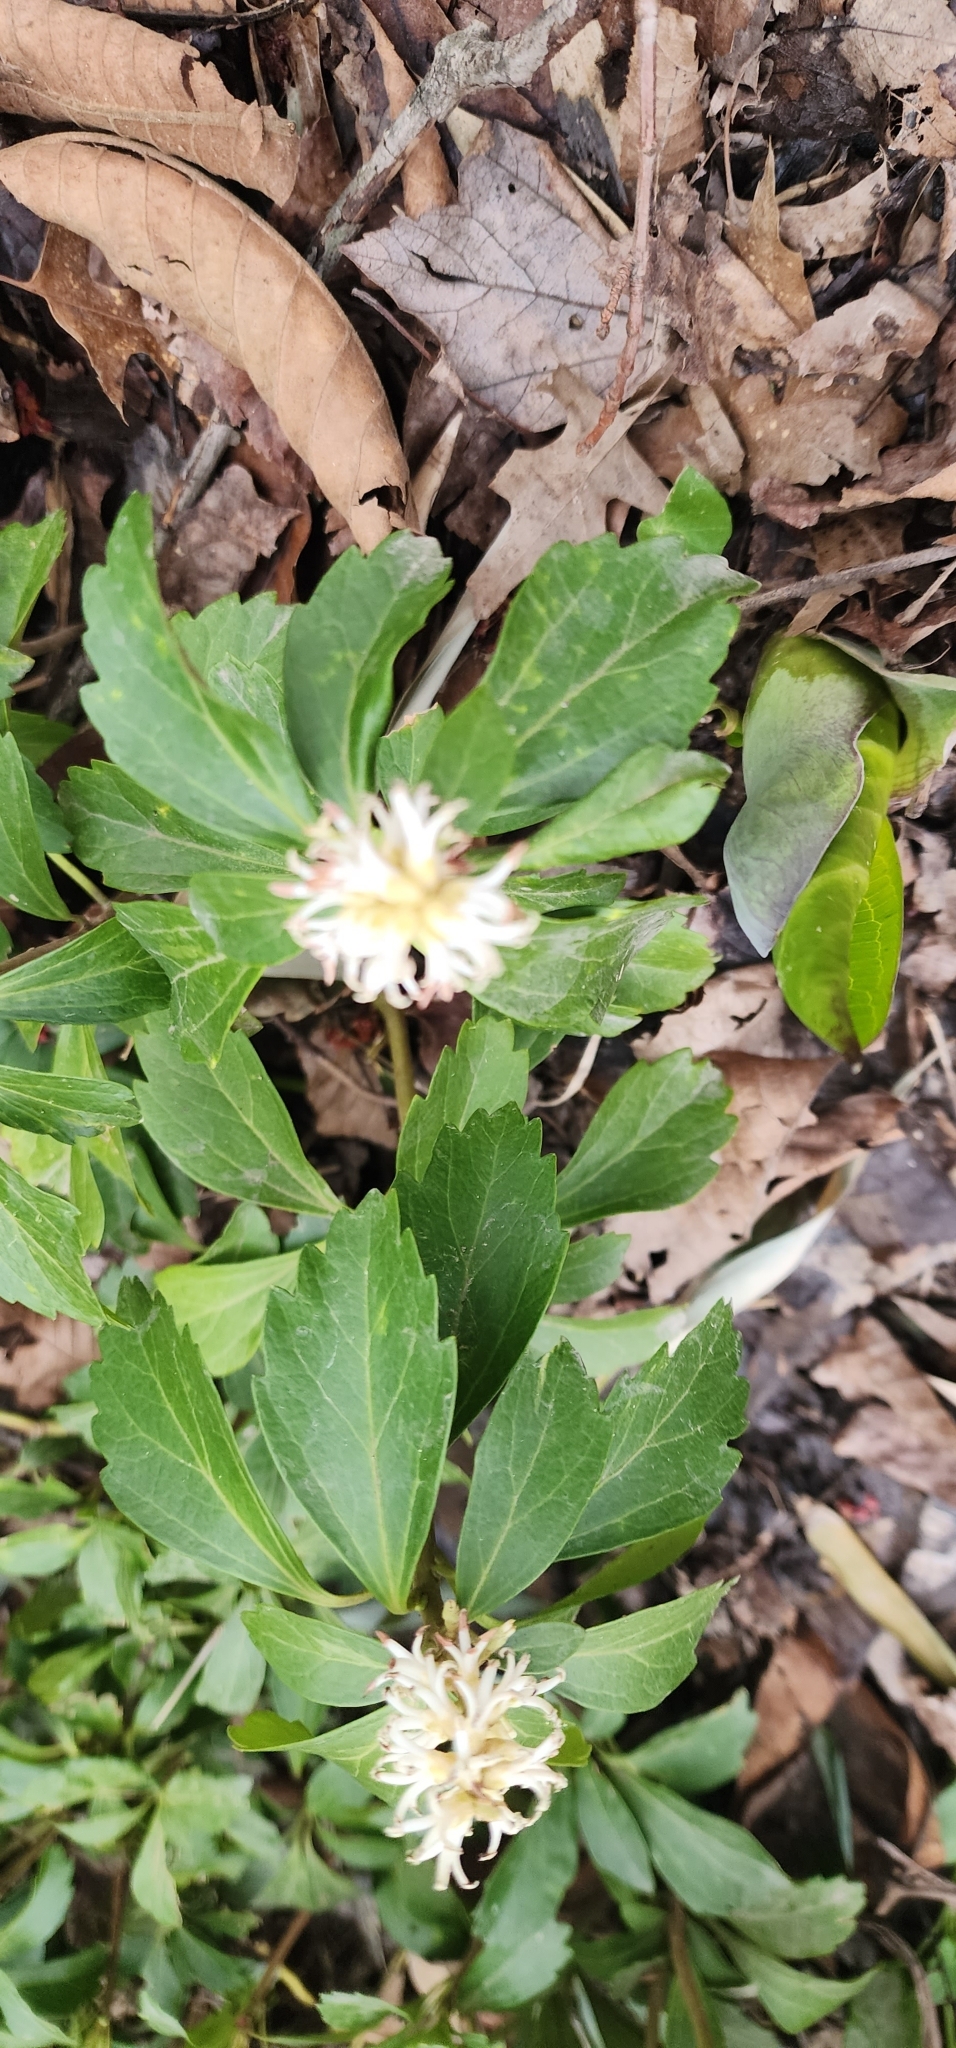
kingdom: Plantae
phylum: Tracheophyta
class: Magnoliopsida
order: Buxales
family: Buxaceae
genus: Pachysandra
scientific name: Pachysandra terminalis
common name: Japanese pachysandra
